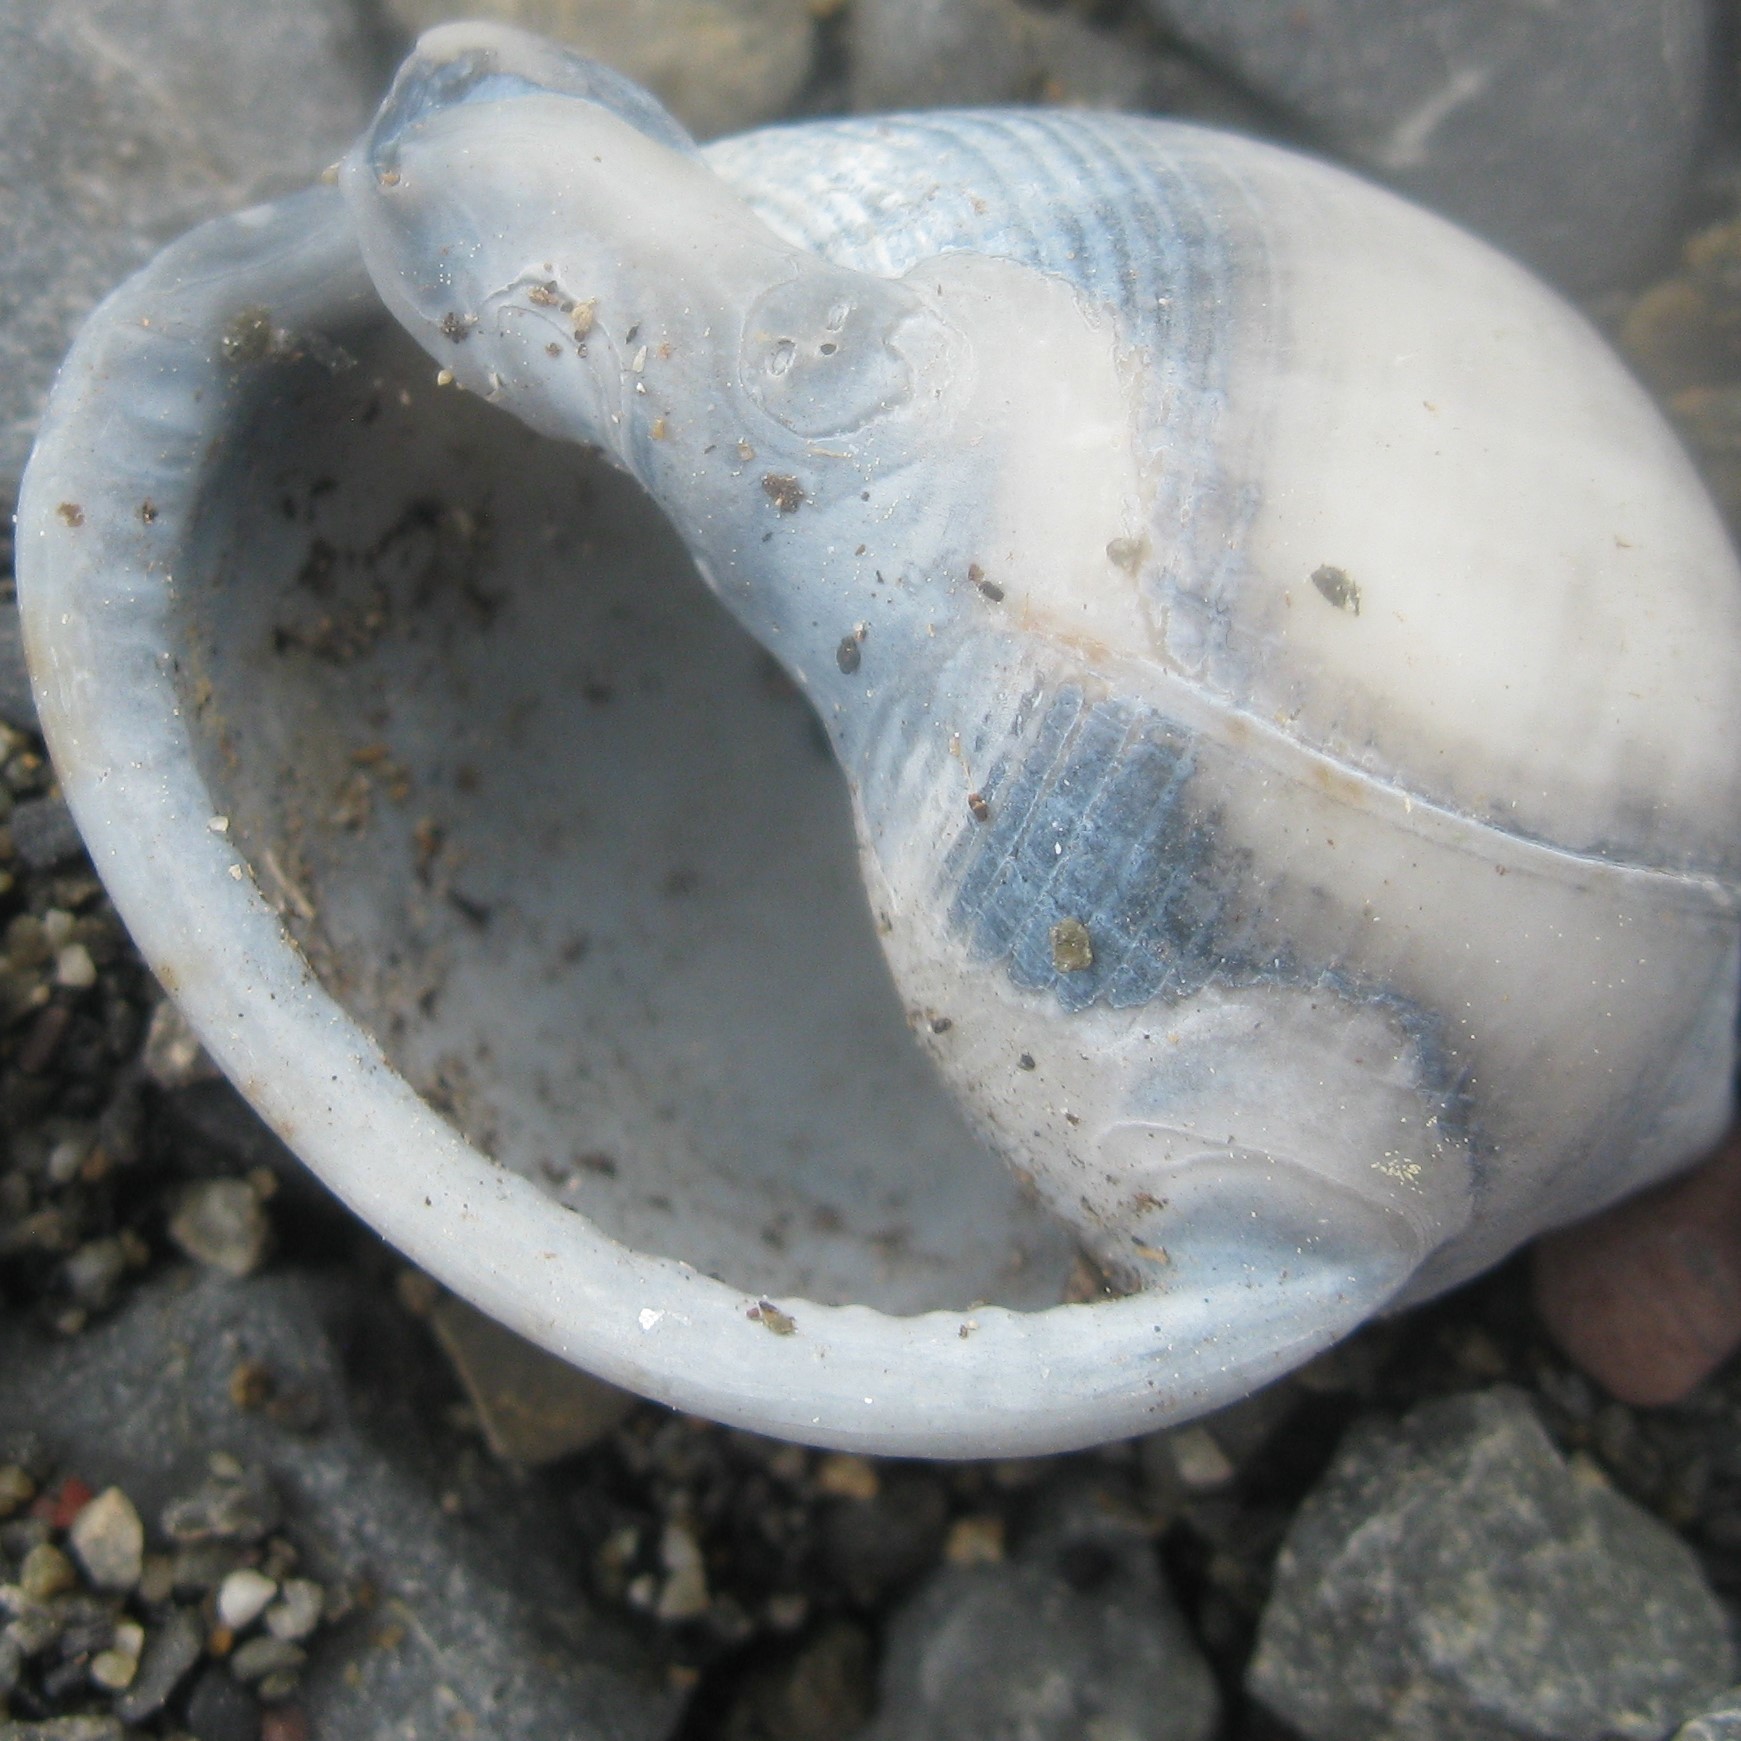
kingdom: Animalia
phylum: Mollusca
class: Gastropoda
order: Littorinimorpha
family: Cassidae
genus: Semicassis
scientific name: Semicassis pyrum
